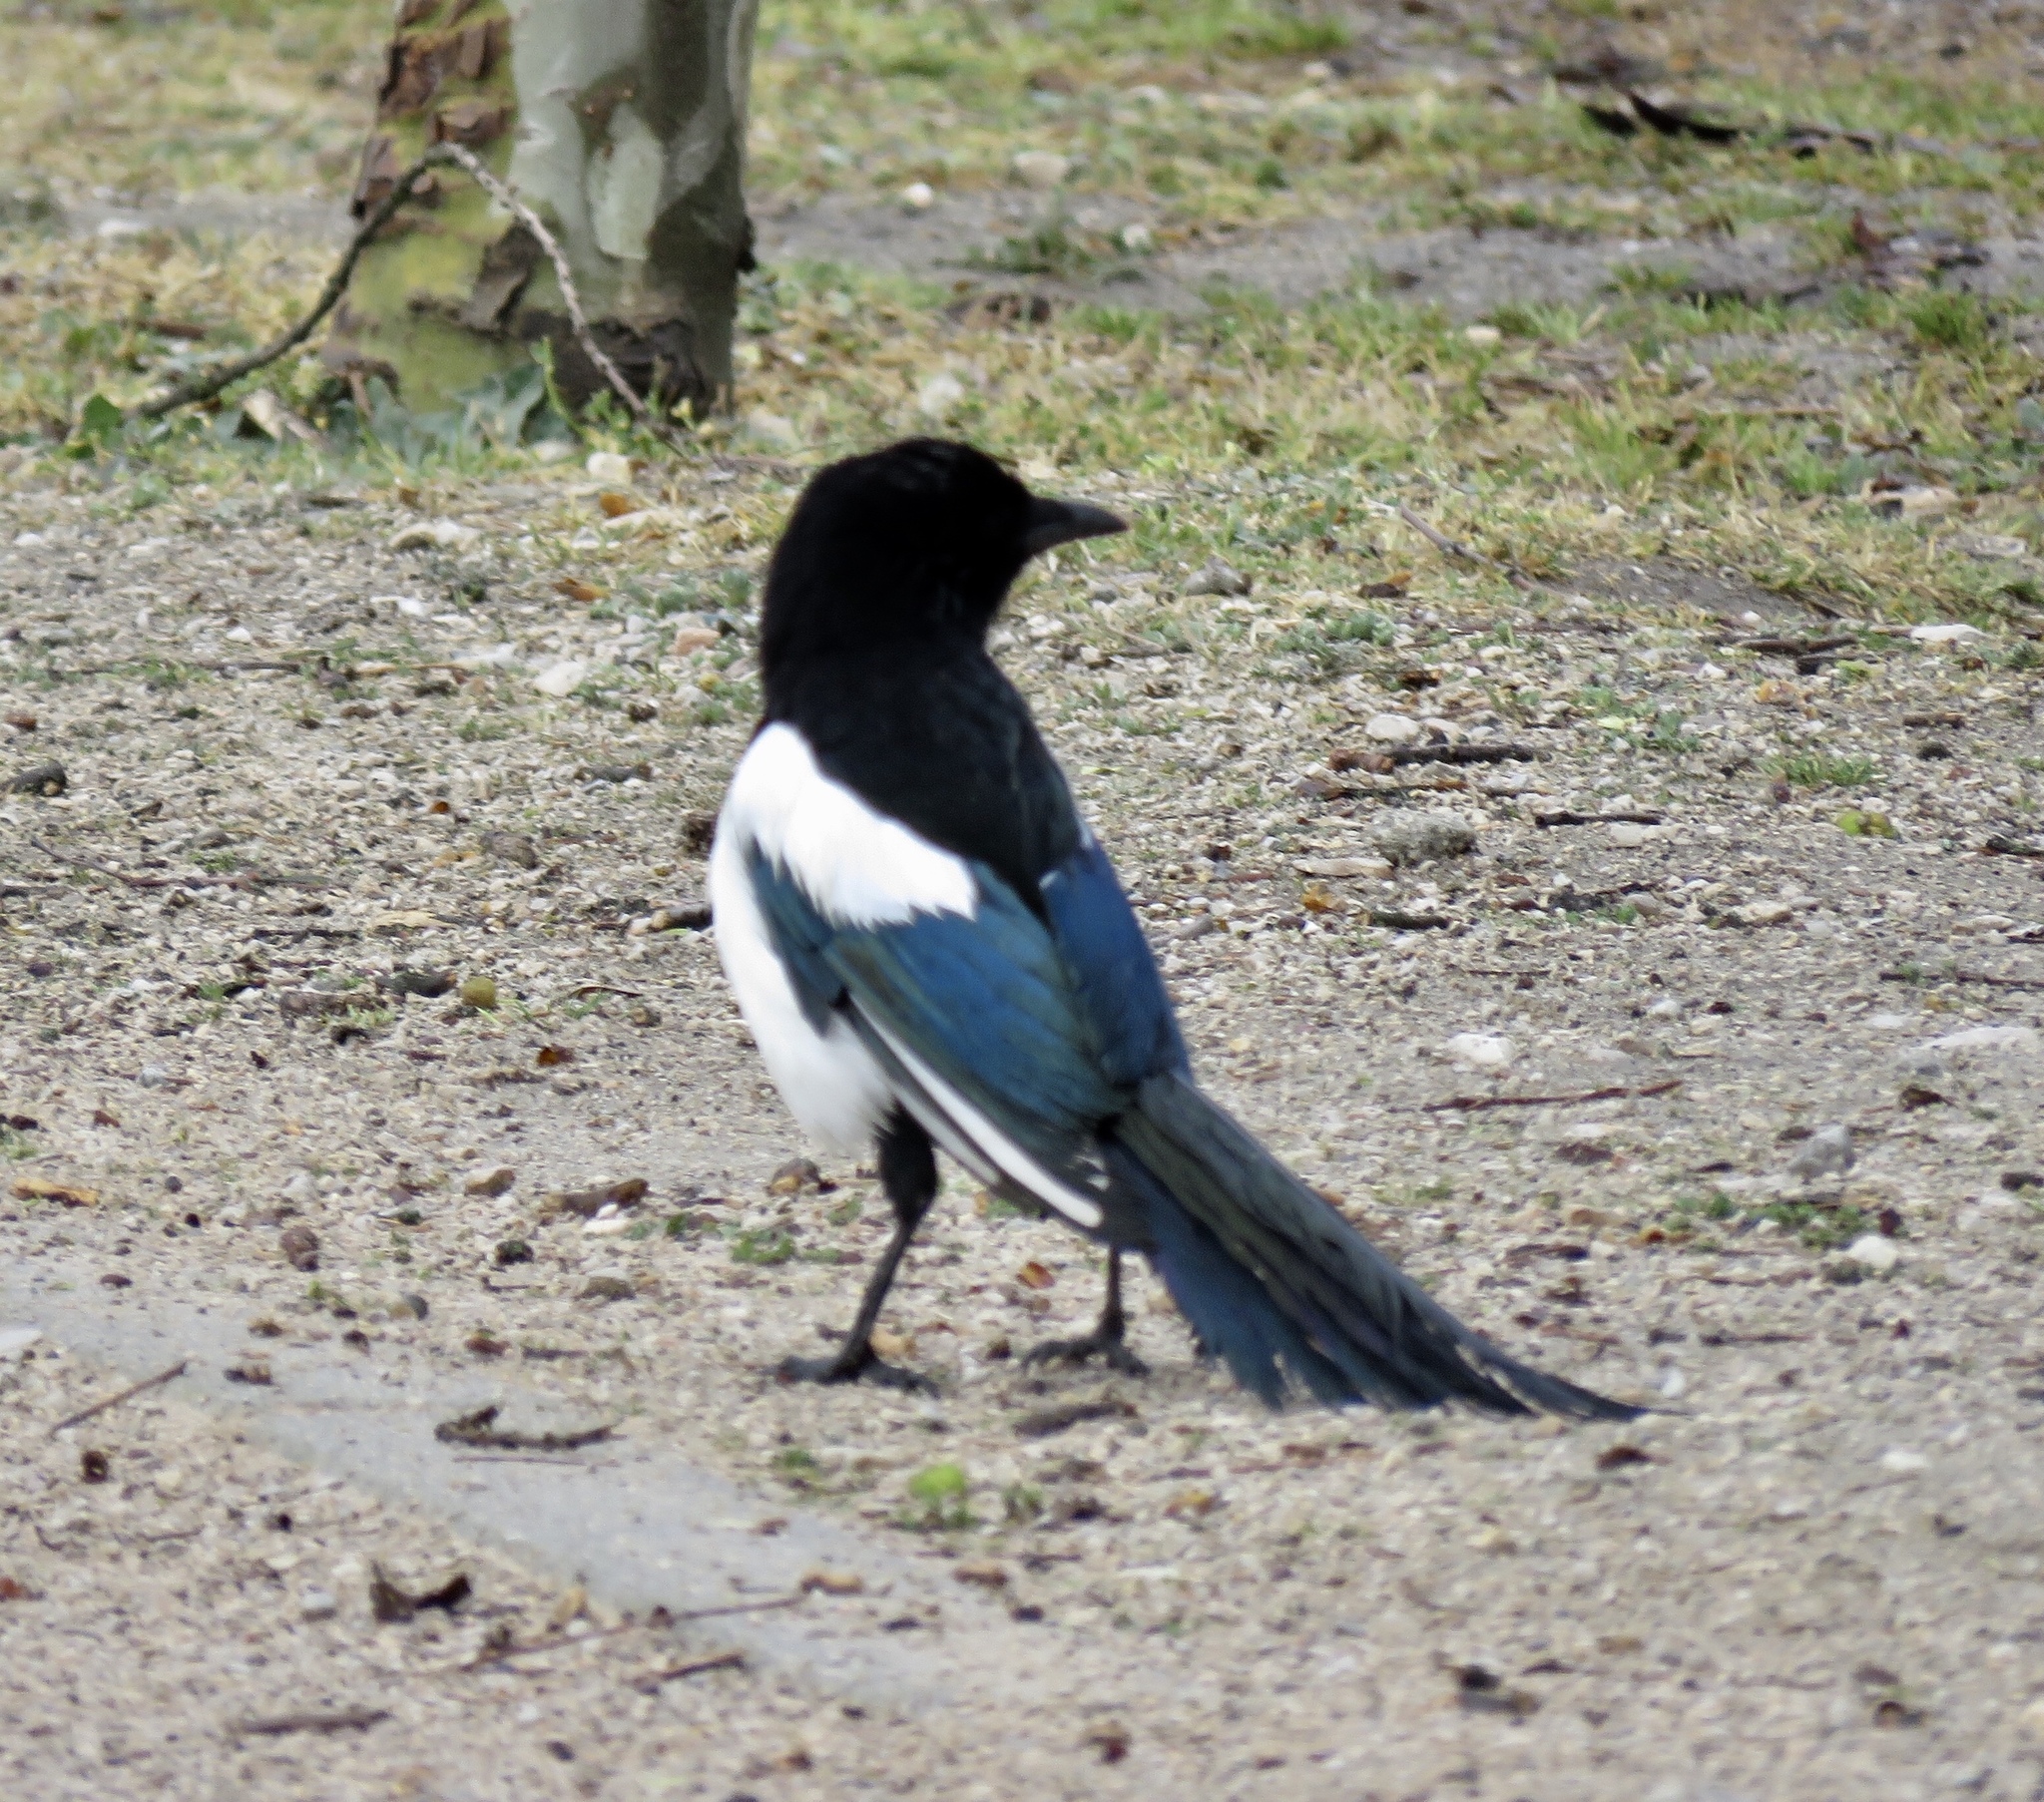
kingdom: Animalia
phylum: Chordata
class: Aves
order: Passeriformes
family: Corvidae
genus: Pica
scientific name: Pica pica
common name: Eurasian magpie
